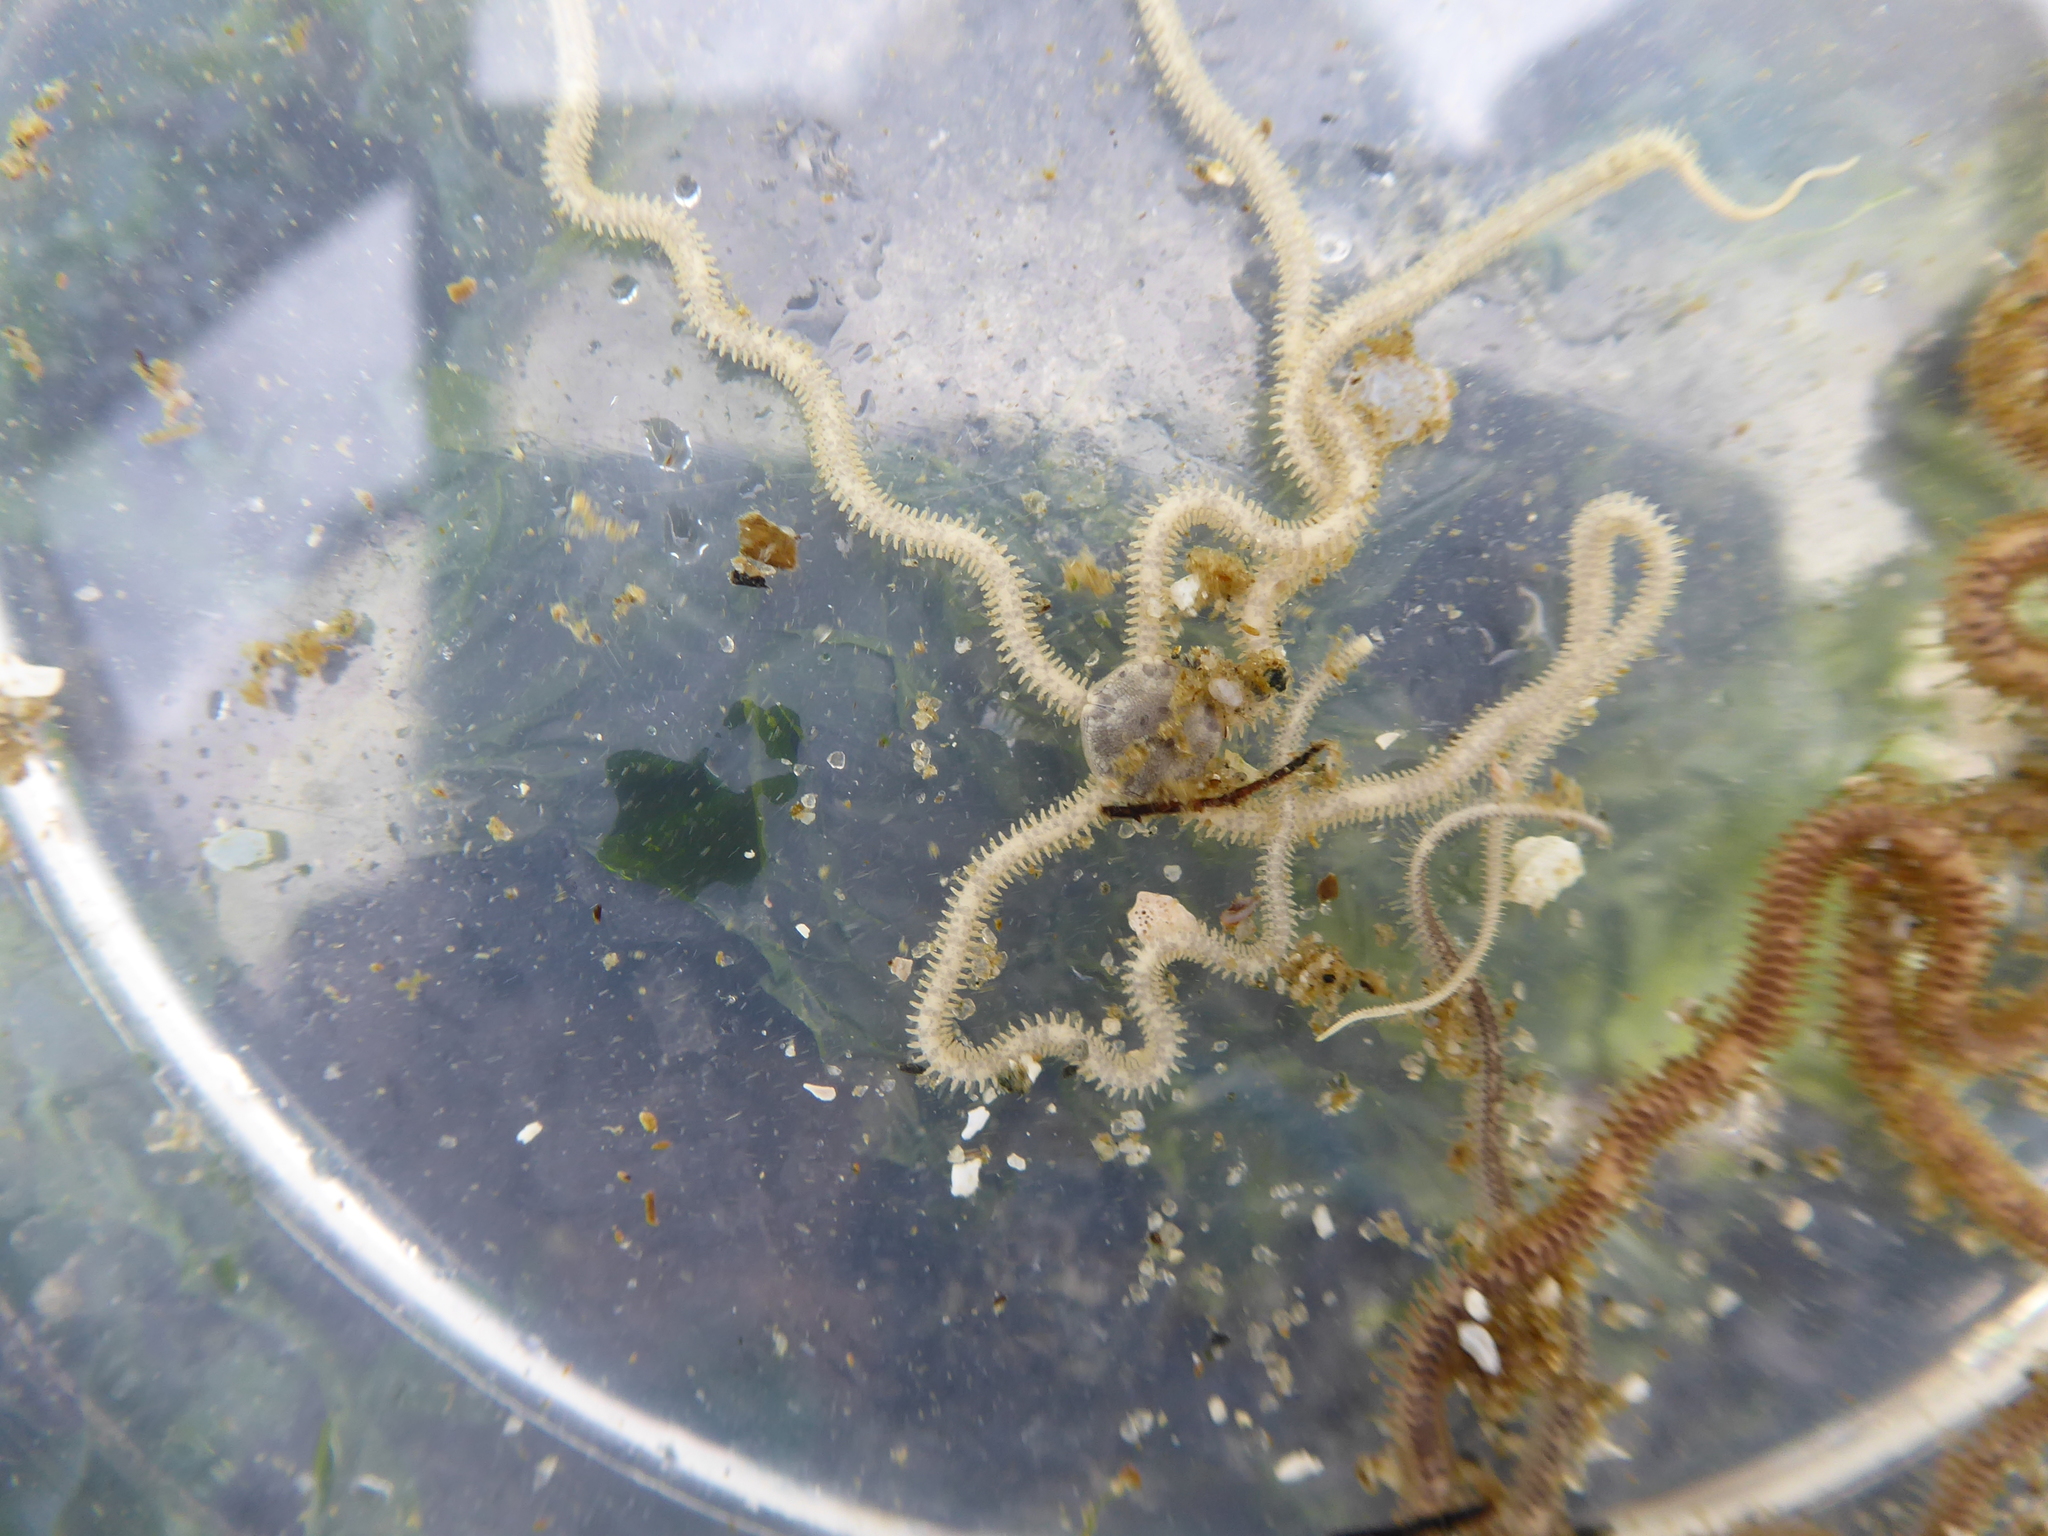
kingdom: Animalia
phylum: Echinodermata
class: Ophiuroidea
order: Amphilepidida
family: Amphiuridae
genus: Amphiodia
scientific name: Amphiodia occidentalis
